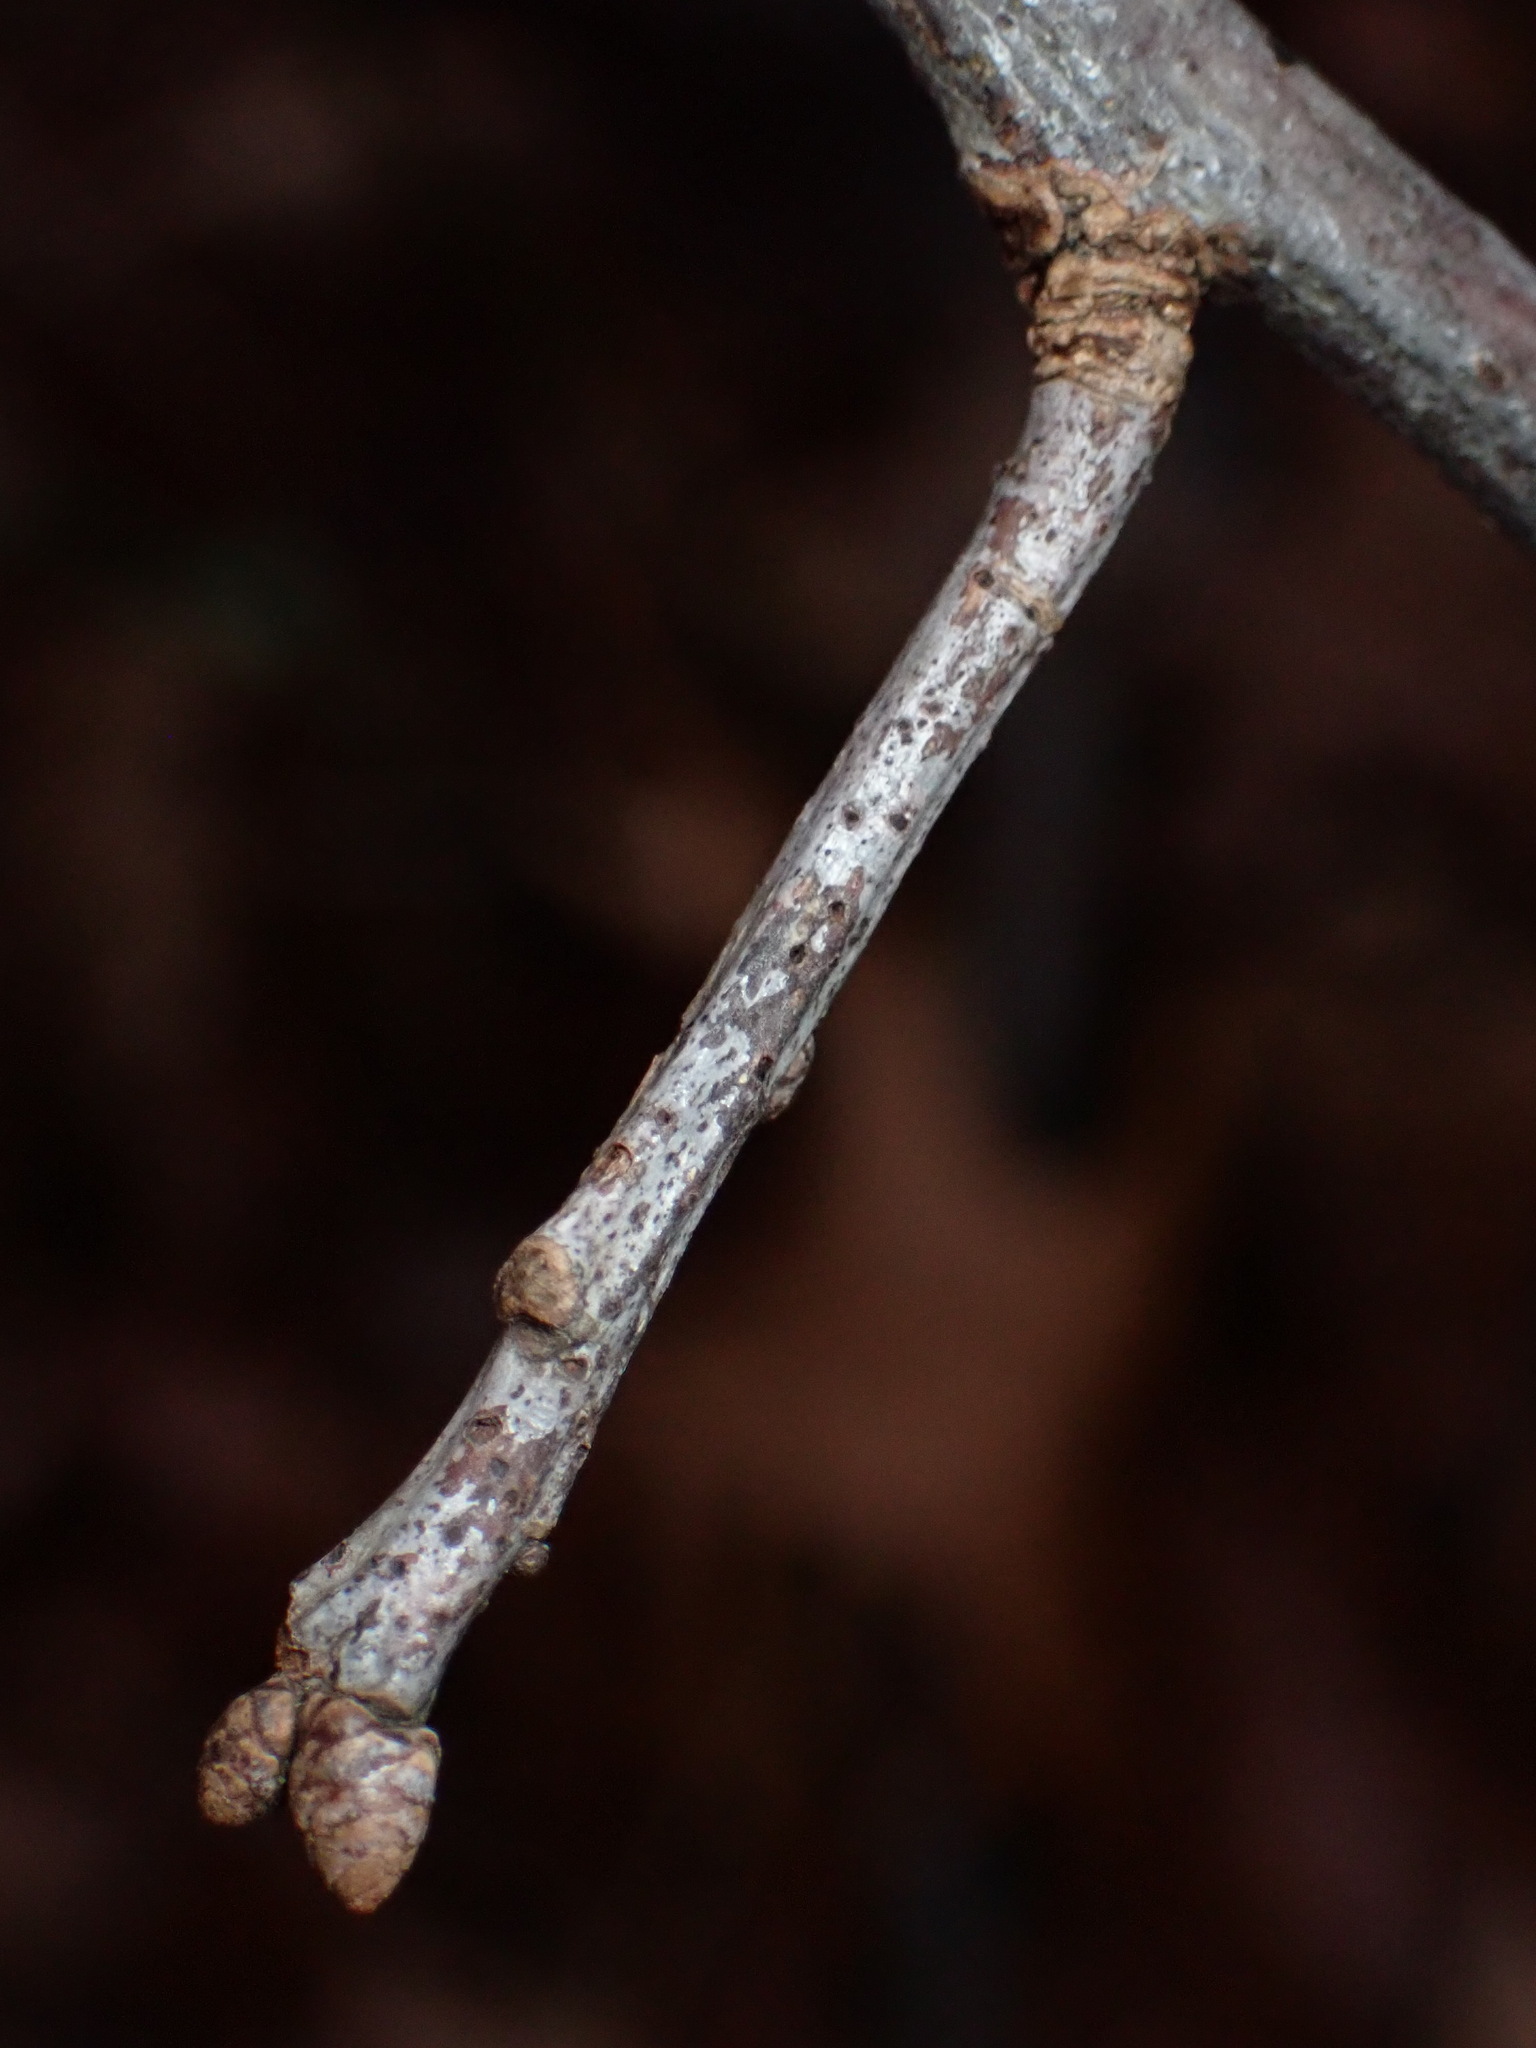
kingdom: Plantae
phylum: Tracheophyta
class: Magnoliopsida
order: Fagales
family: Fagaceae
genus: Quercus
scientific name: Quercus velutina
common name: Black oak
